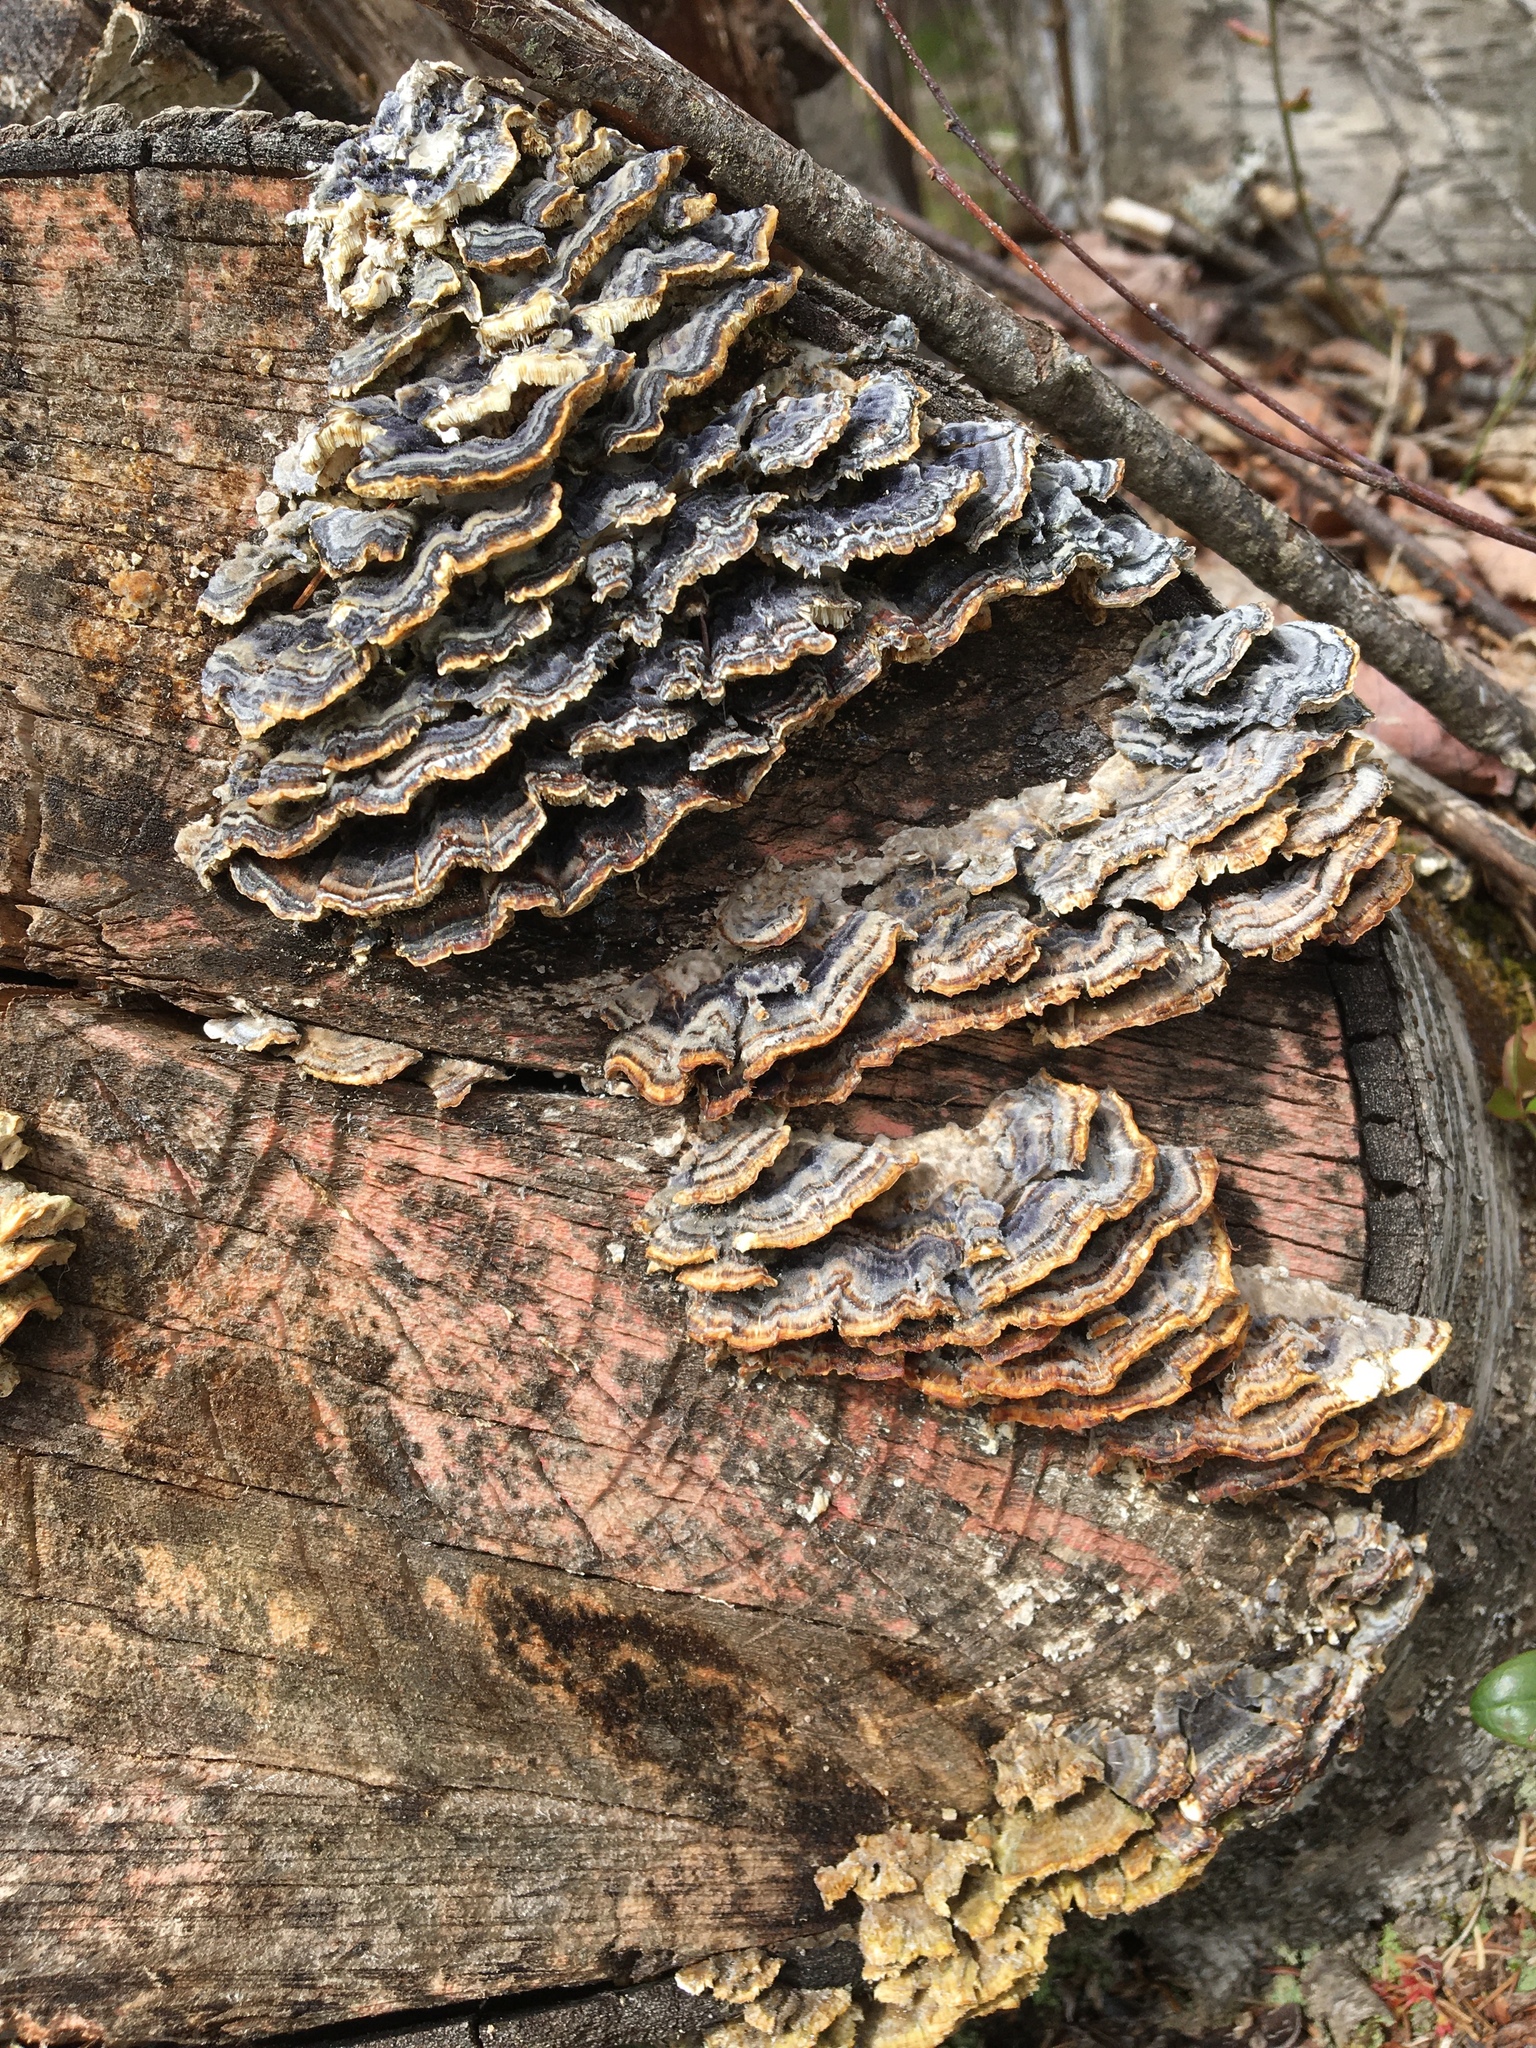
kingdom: Fungi
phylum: Basidiomycota
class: Agaricomycetes
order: Polyporales
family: Polyporaceae
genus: Trametes
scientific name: Trametes versicolor
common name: Turkeytail
